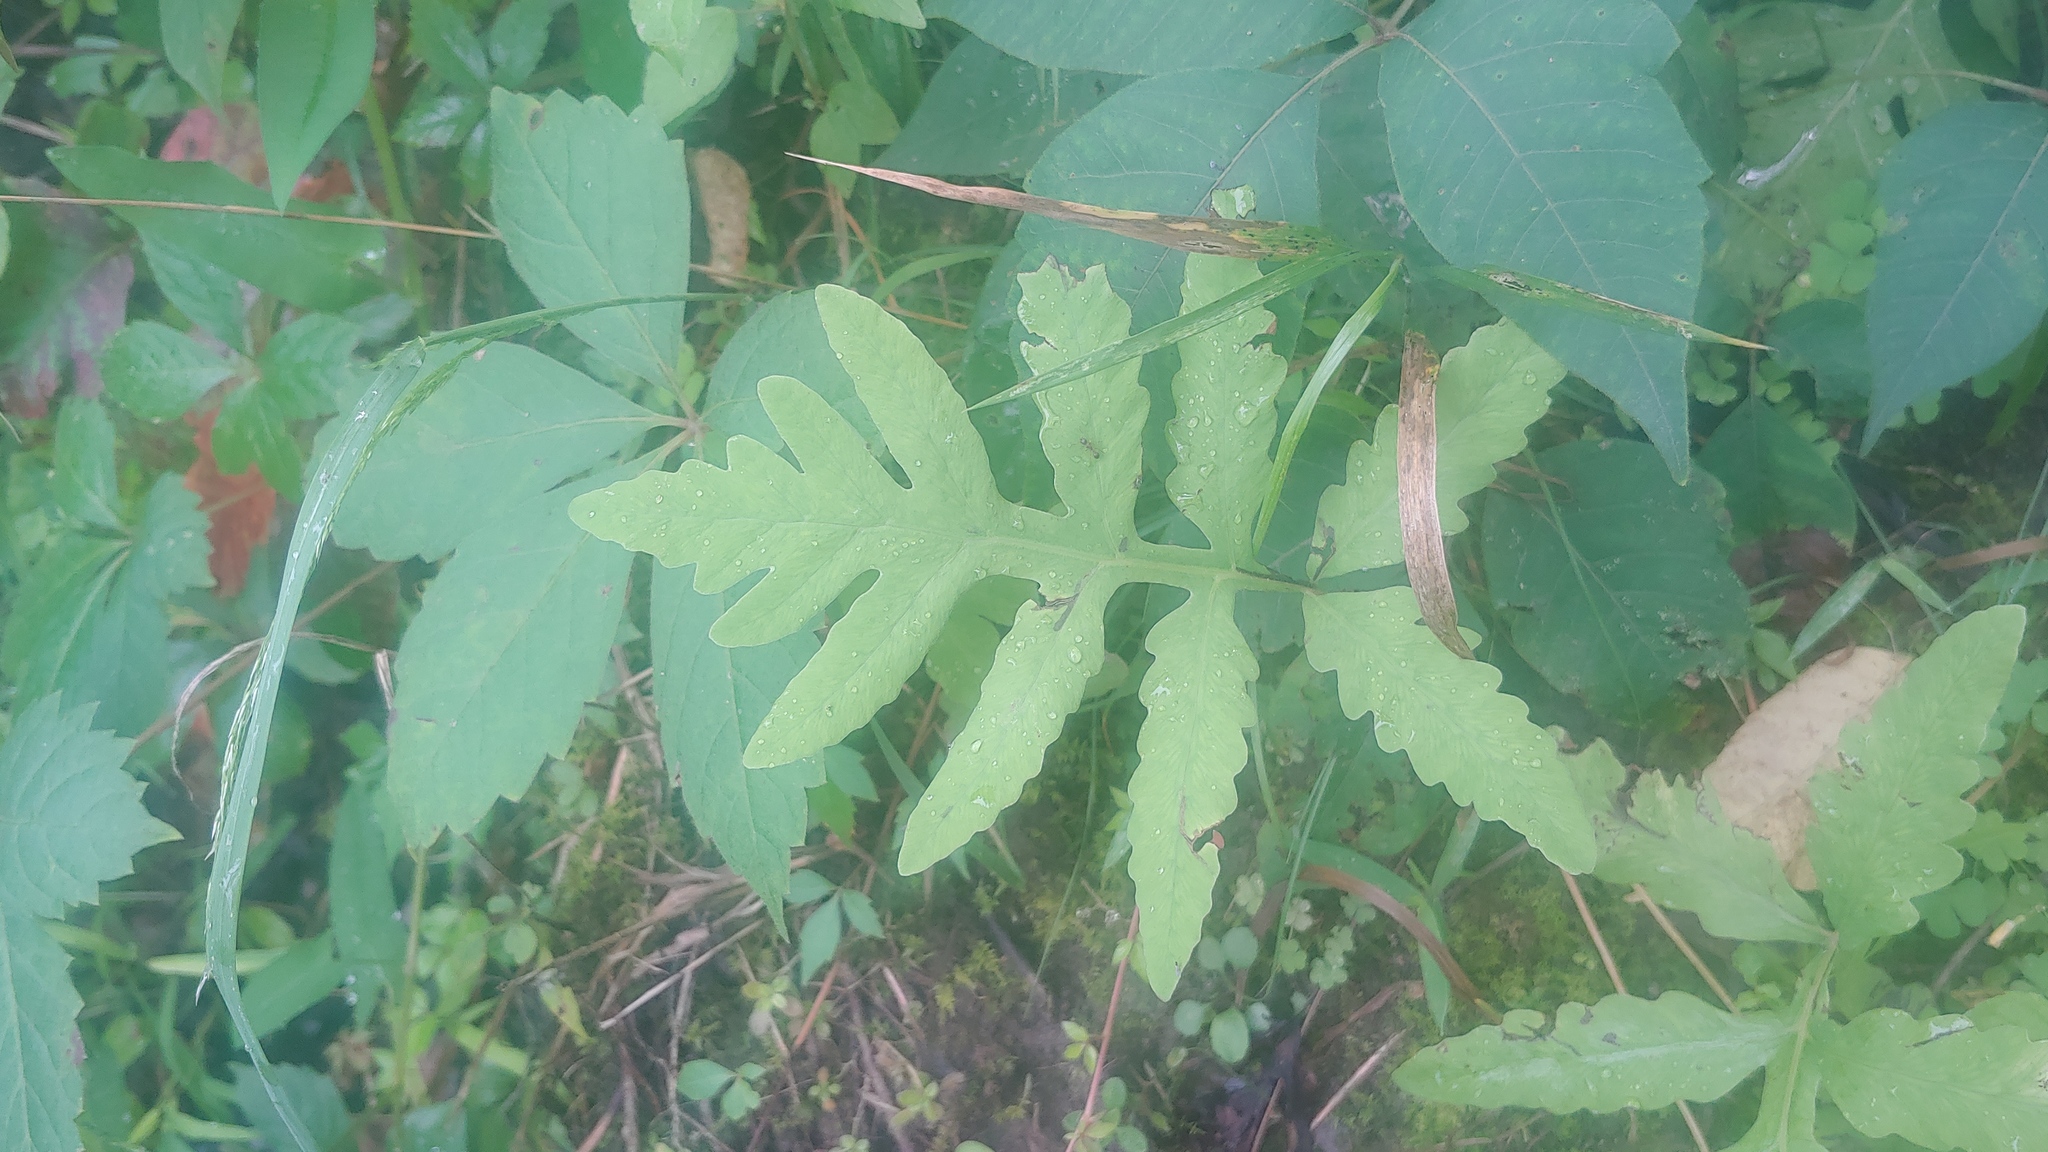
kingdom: Plantae
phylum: Tracheophyta
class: Polypodiopsida
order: Polypodiales
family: Onocleaceae
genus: Onoclea
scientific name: Onoclea sensibilis
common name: Sensitive fern
